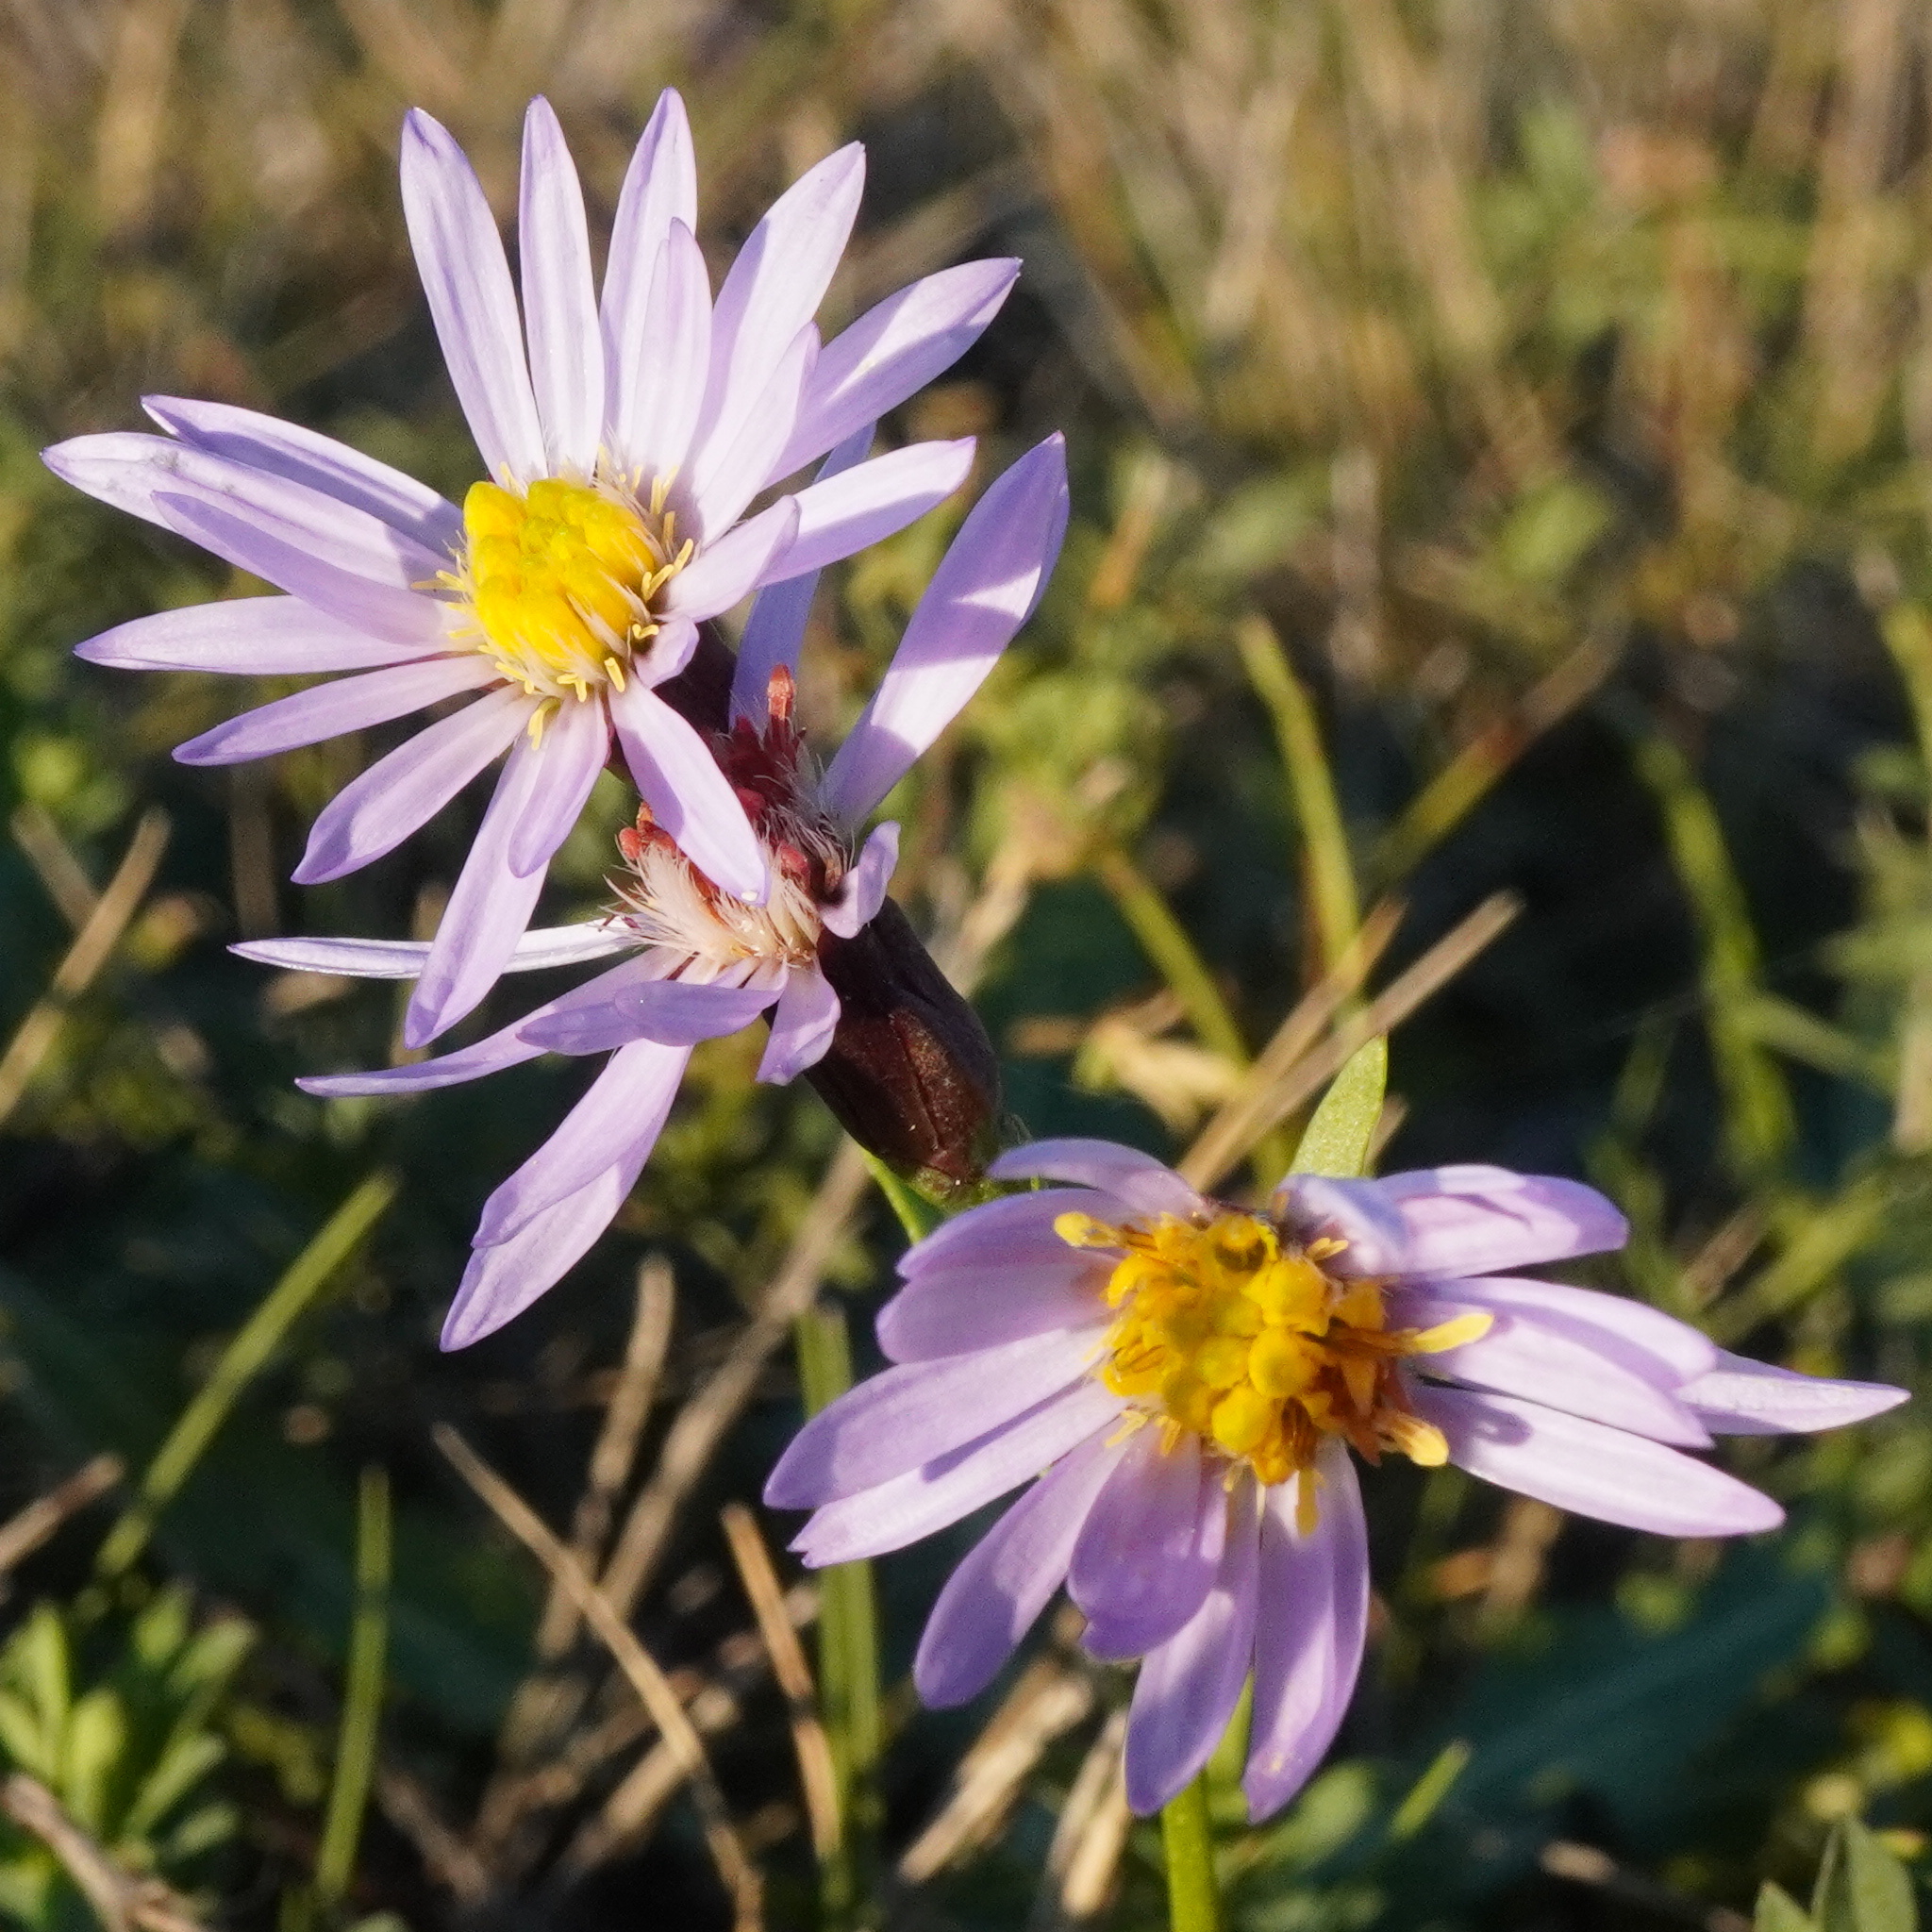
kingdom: Plantae
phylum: Tracheophyta
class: Magnoliopsida
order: Asterales
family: Asteraceae
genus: Tripolium
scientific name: Tripolium pannonicum
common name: Sea aster
